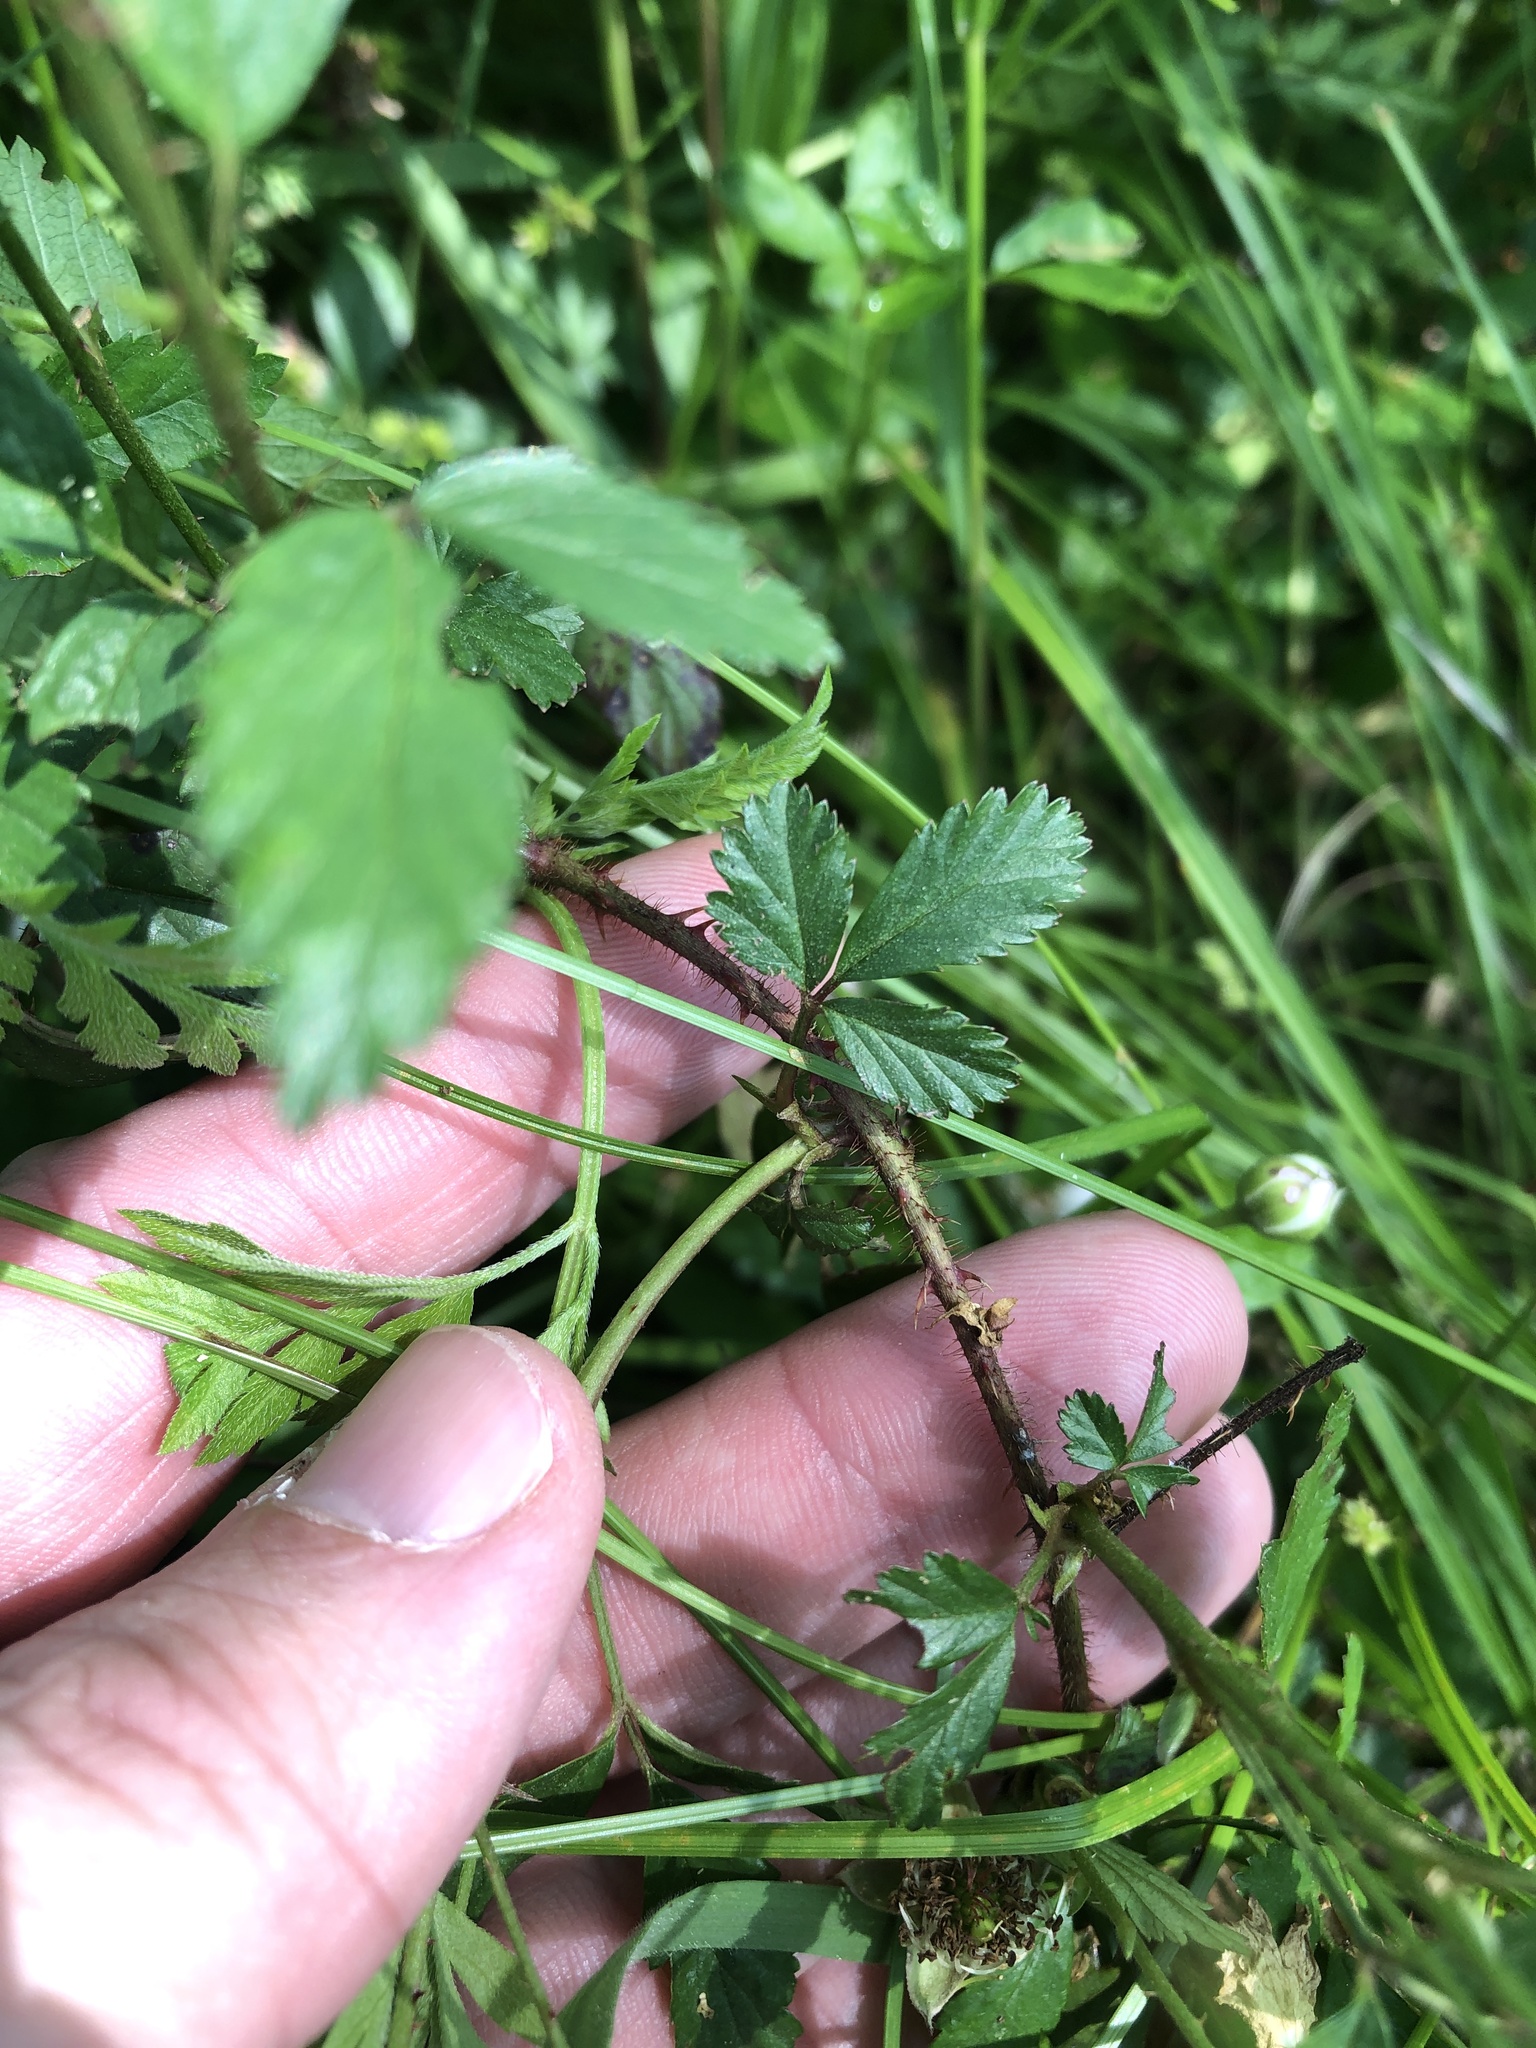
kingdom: Plantae
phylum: Tracheophyta
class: Magnoliopsida
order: Rosales
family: Rosaceae
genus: Rubus
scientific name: Rubus trivialis
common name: Southern dewberry
